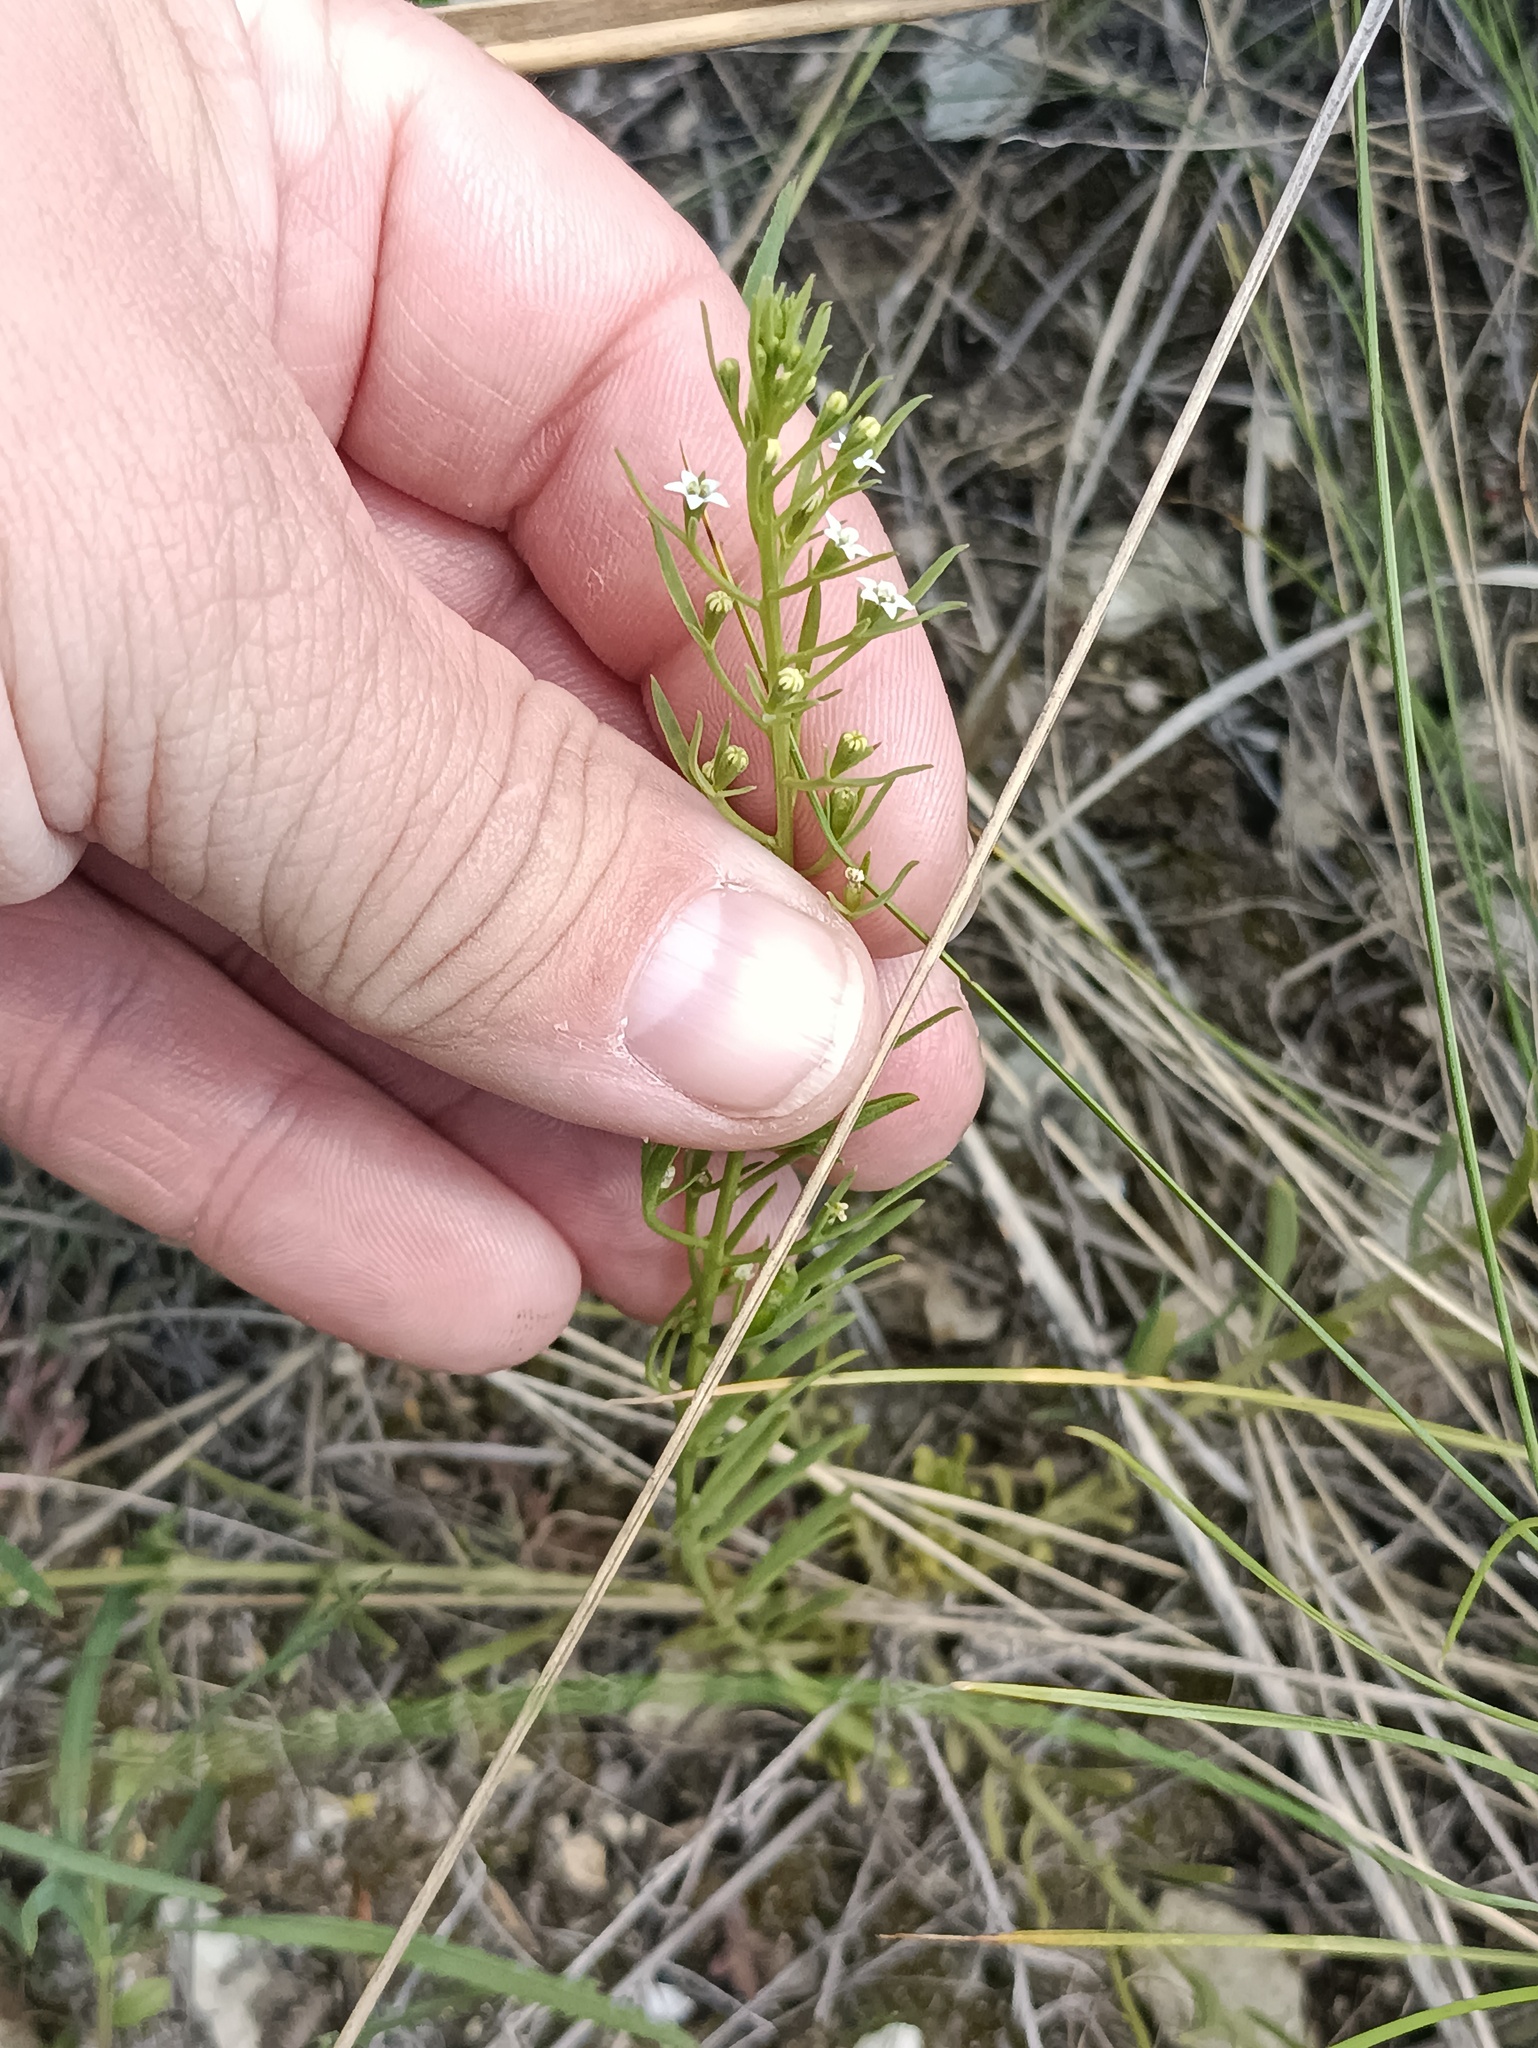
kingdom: Plantae
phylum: Tracheophyta
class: Magnoliopsida
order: Santalales
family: Thesiaceae
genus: Thesium
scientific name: Thesium ramosum
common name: Field thesium
